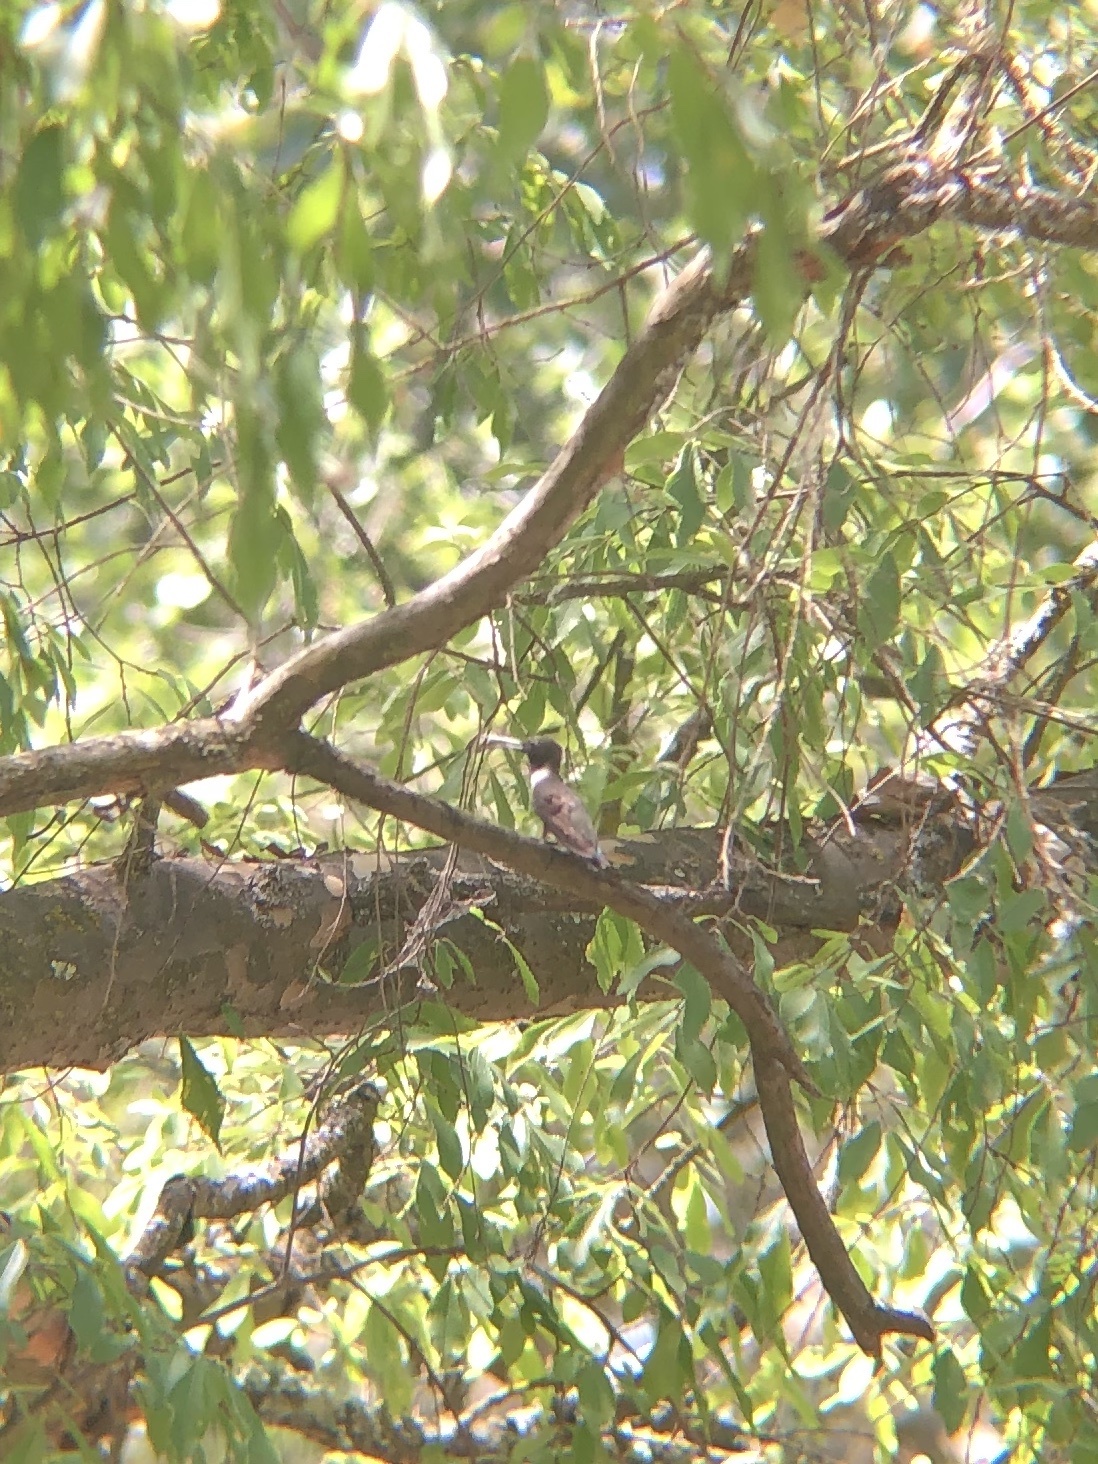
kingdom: Animalia
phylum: Chordata
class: Aves
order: Apodiformes
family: Trochilidae
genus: Archilochus
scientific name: Archilochus alexandri
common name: Black-chinned hummingbird
